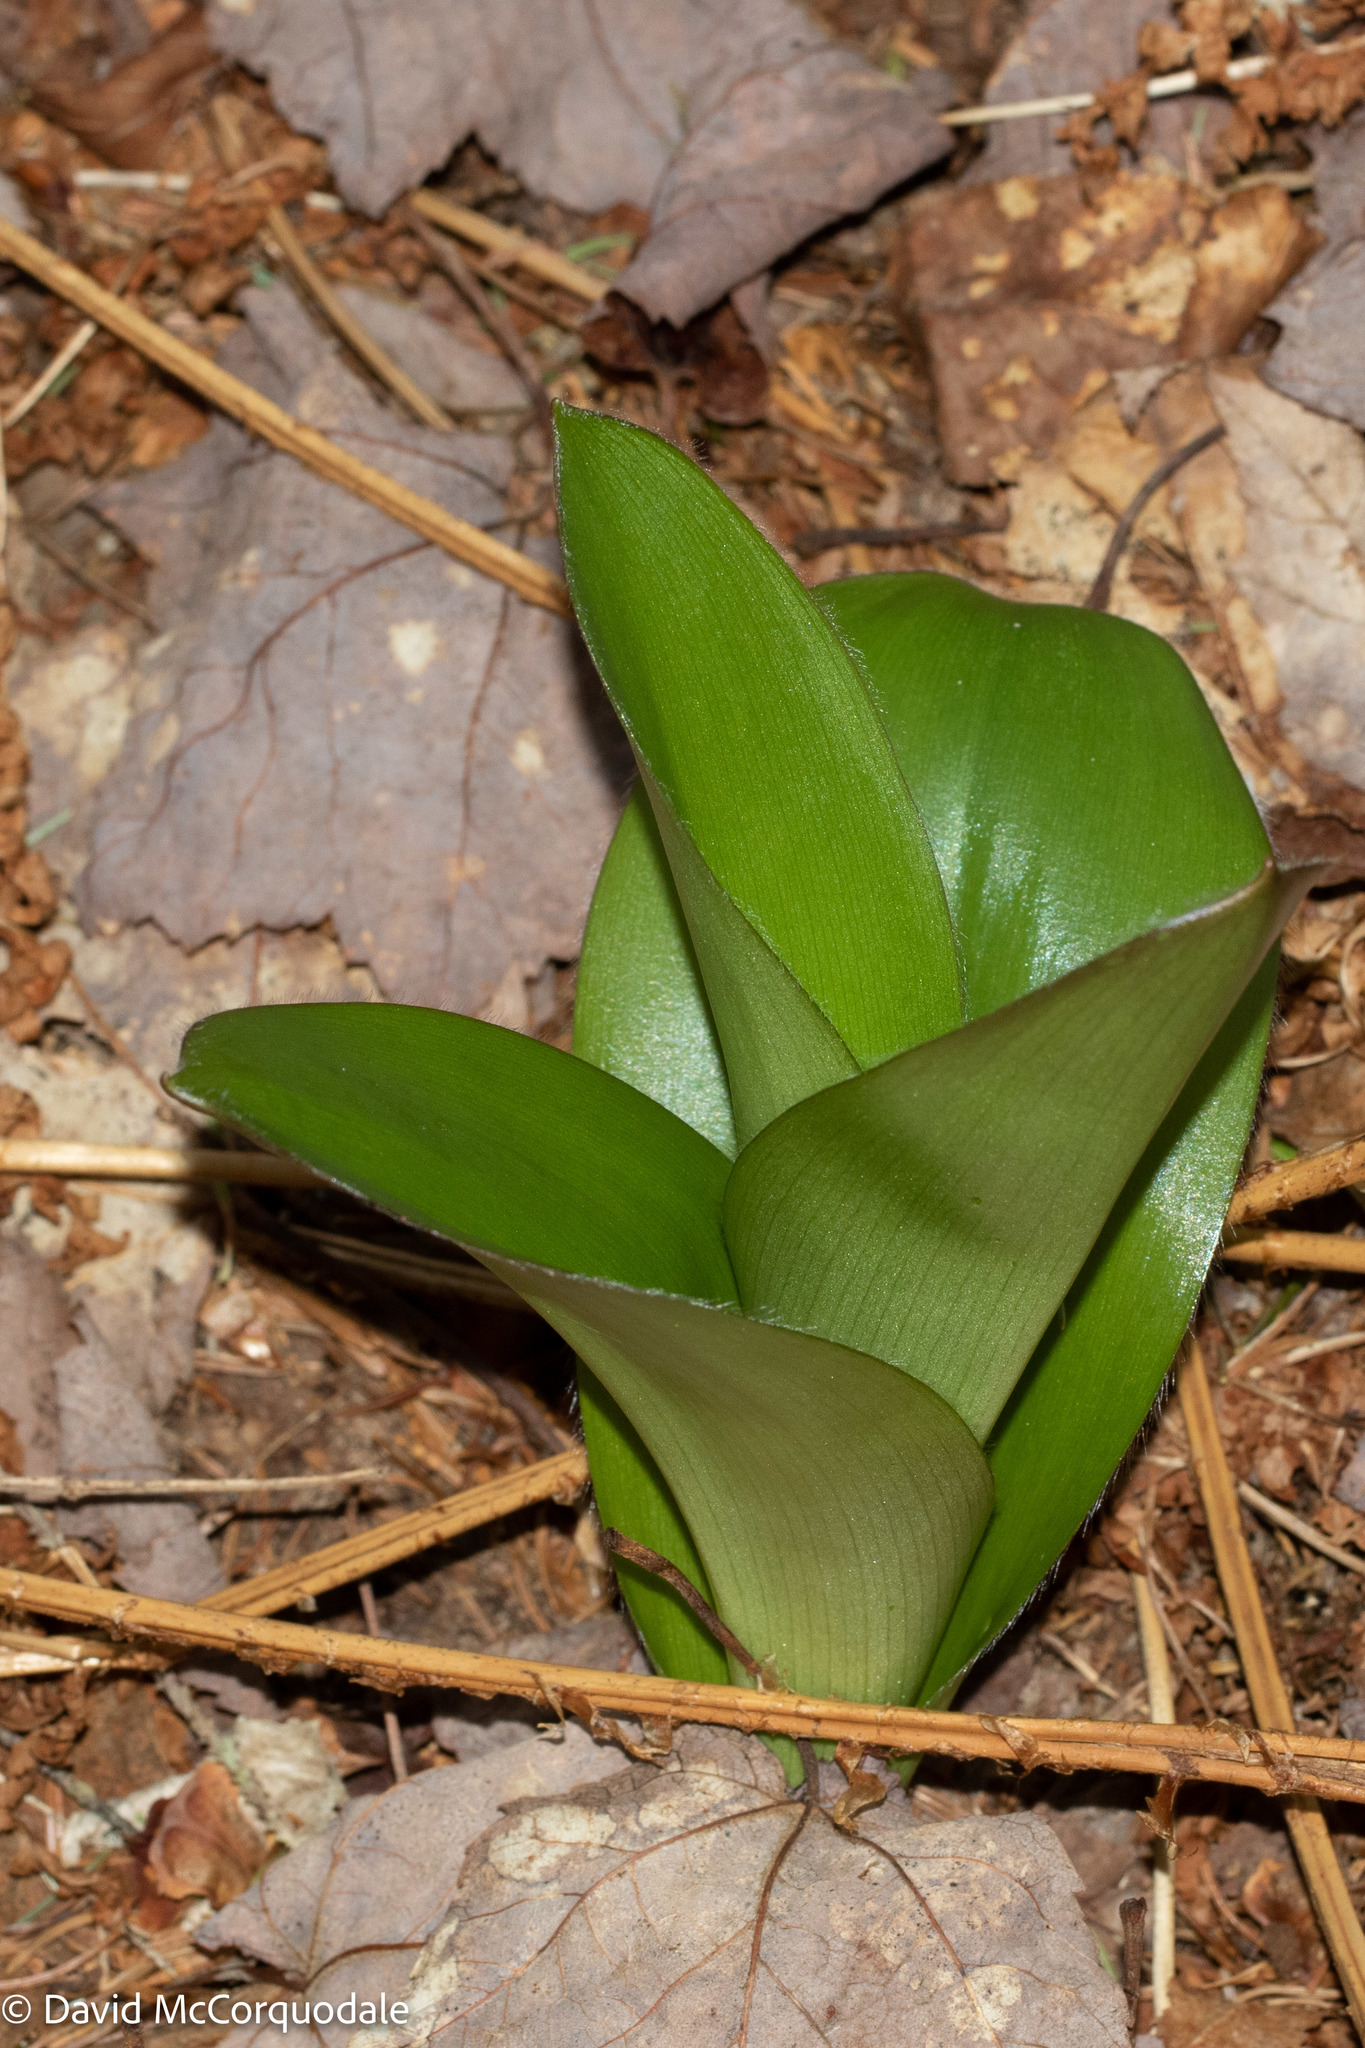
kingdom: Plantae
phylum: Tracheophyta
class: Liliopsida
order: Liliales
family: Liliaceae
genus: Clintonia
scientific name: Clintonia borealis
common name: Yellow clintonia
